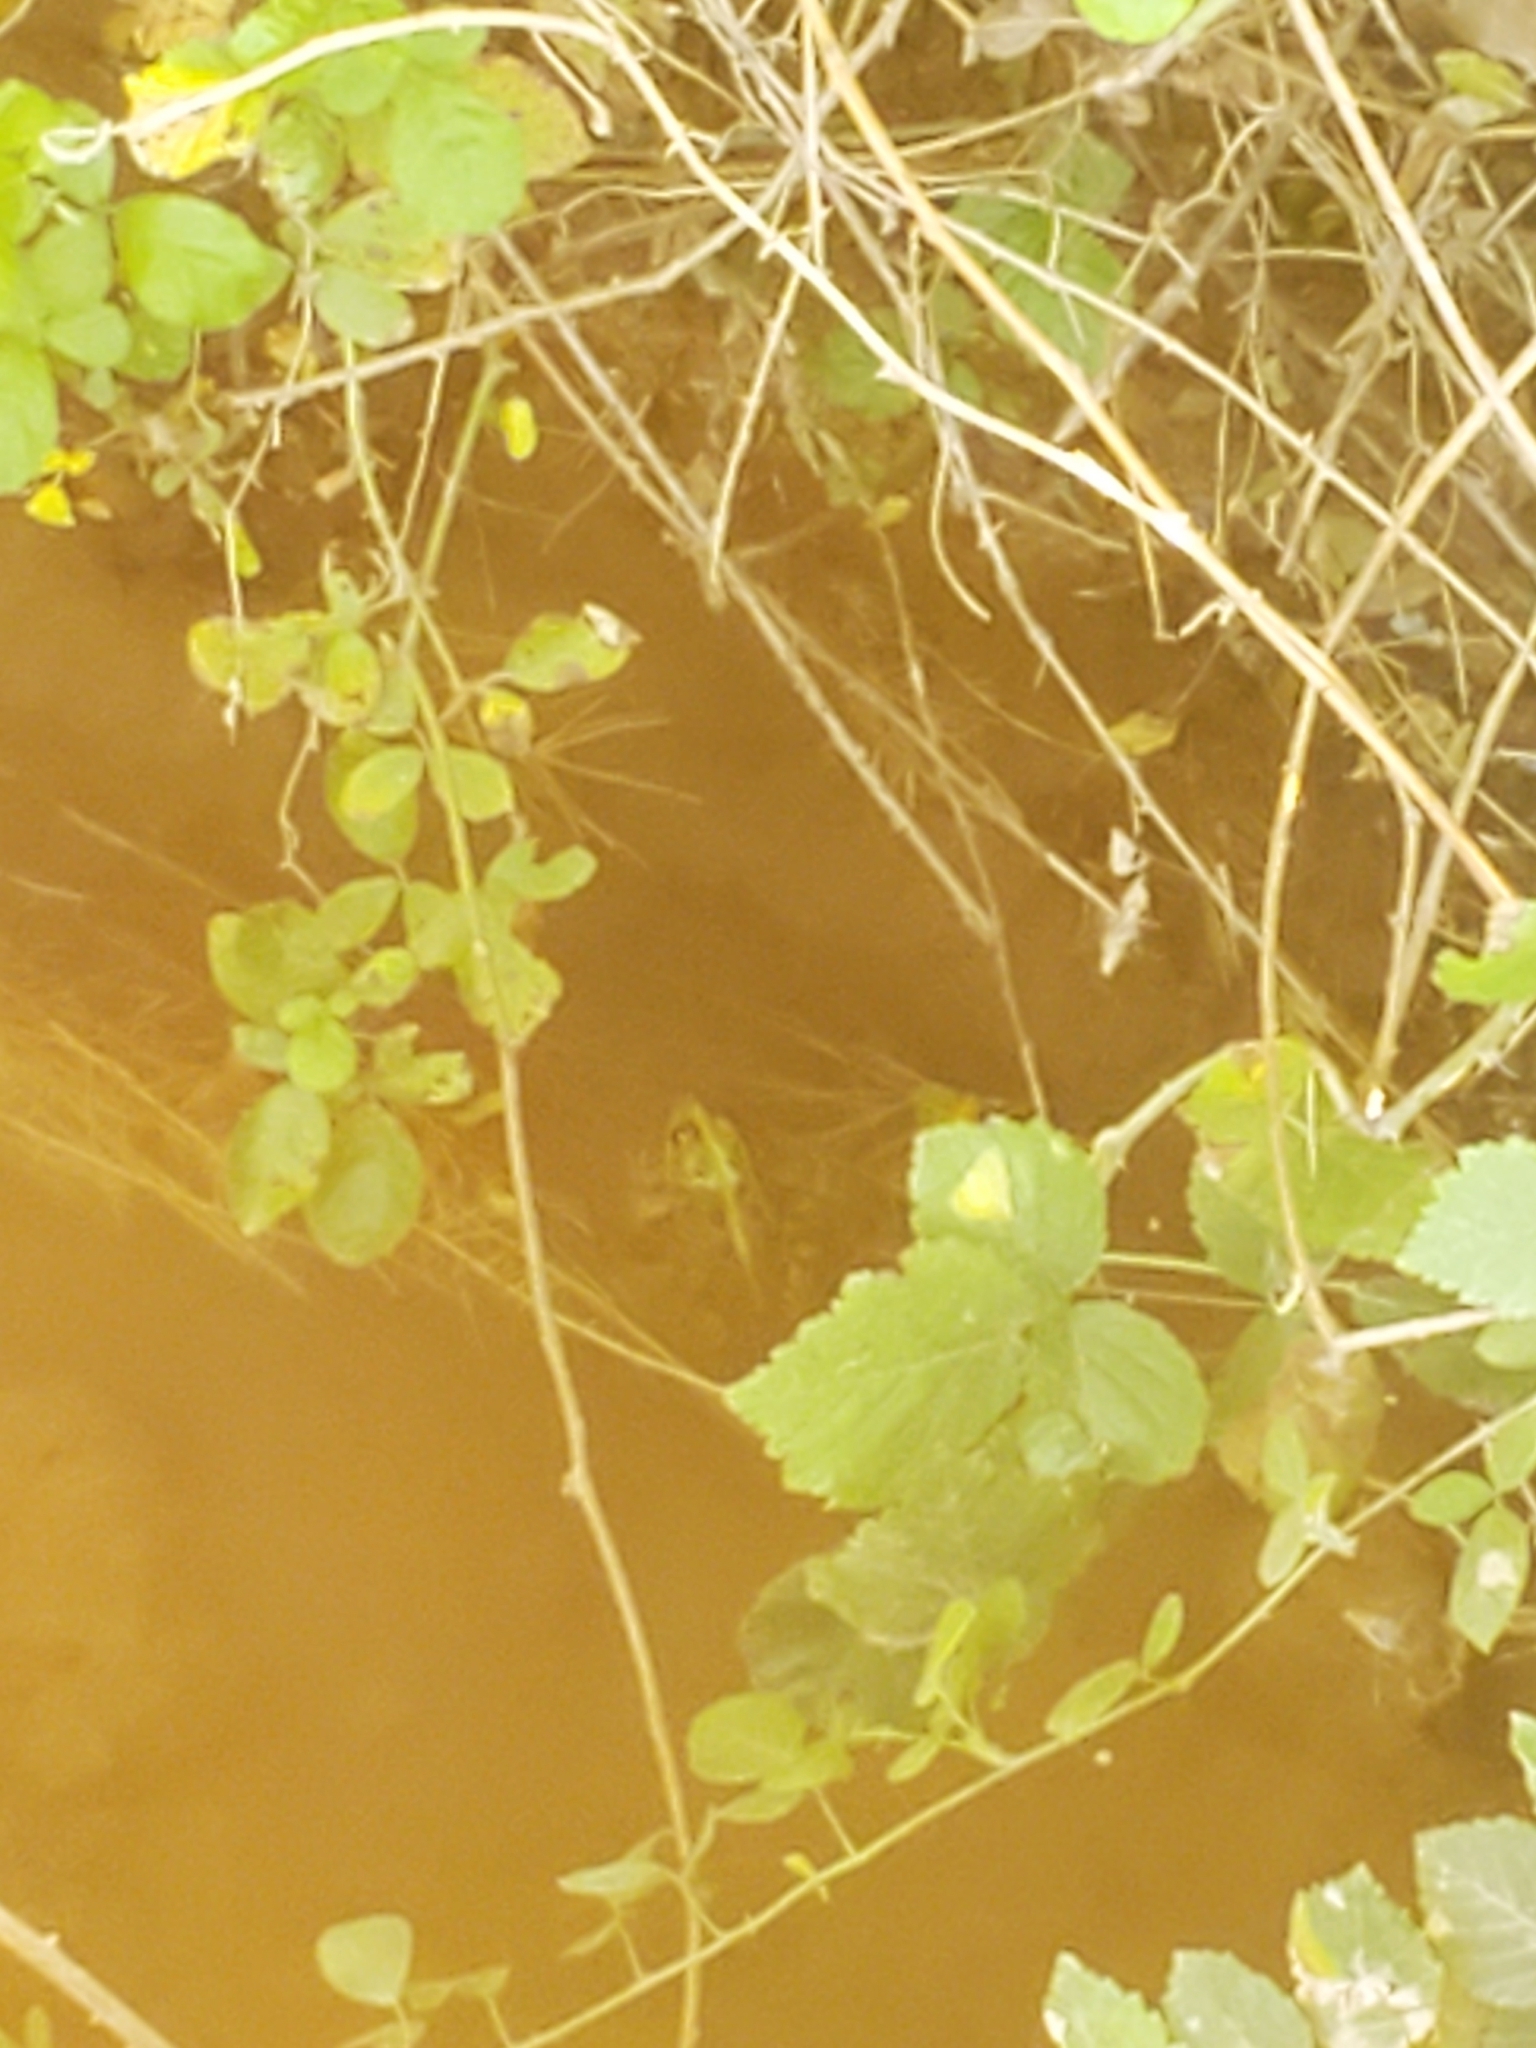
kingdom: Animalia
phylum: Chordata
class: Amphibia
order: Anura
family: Ranidae
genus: Pelophylax
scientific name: Pelophylax ridibundus
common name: Marsh frog
